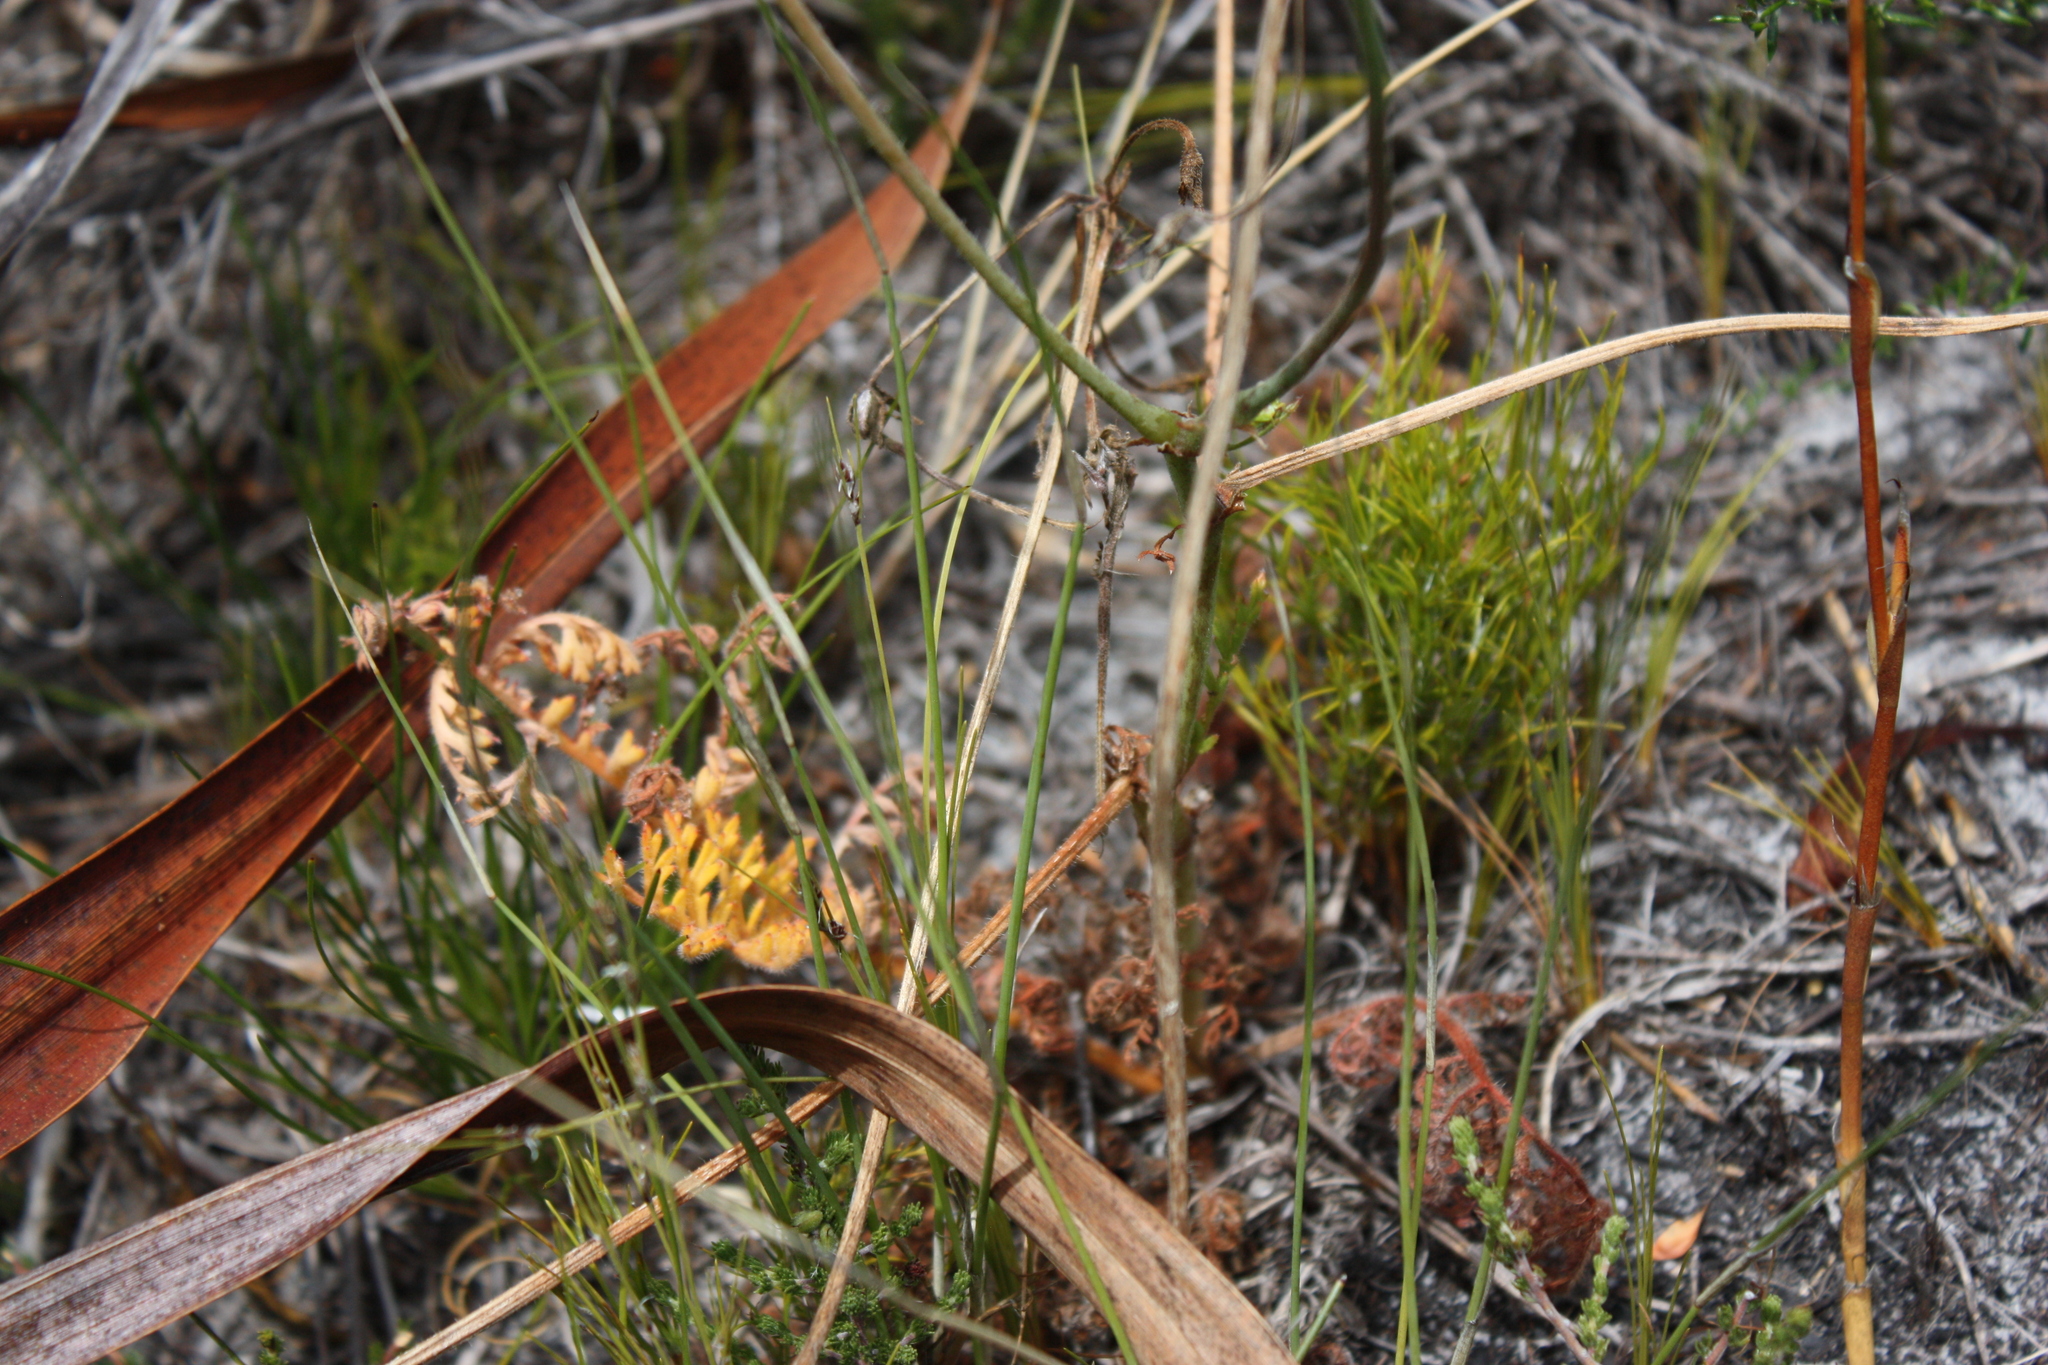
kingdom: Plantae
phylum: Tracheophyta
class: Magnoliopsida
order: Geraniales
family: Geraniaceae
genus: Pelargonium
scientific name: Pelargonium triste
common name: Night-scent pelargonium
